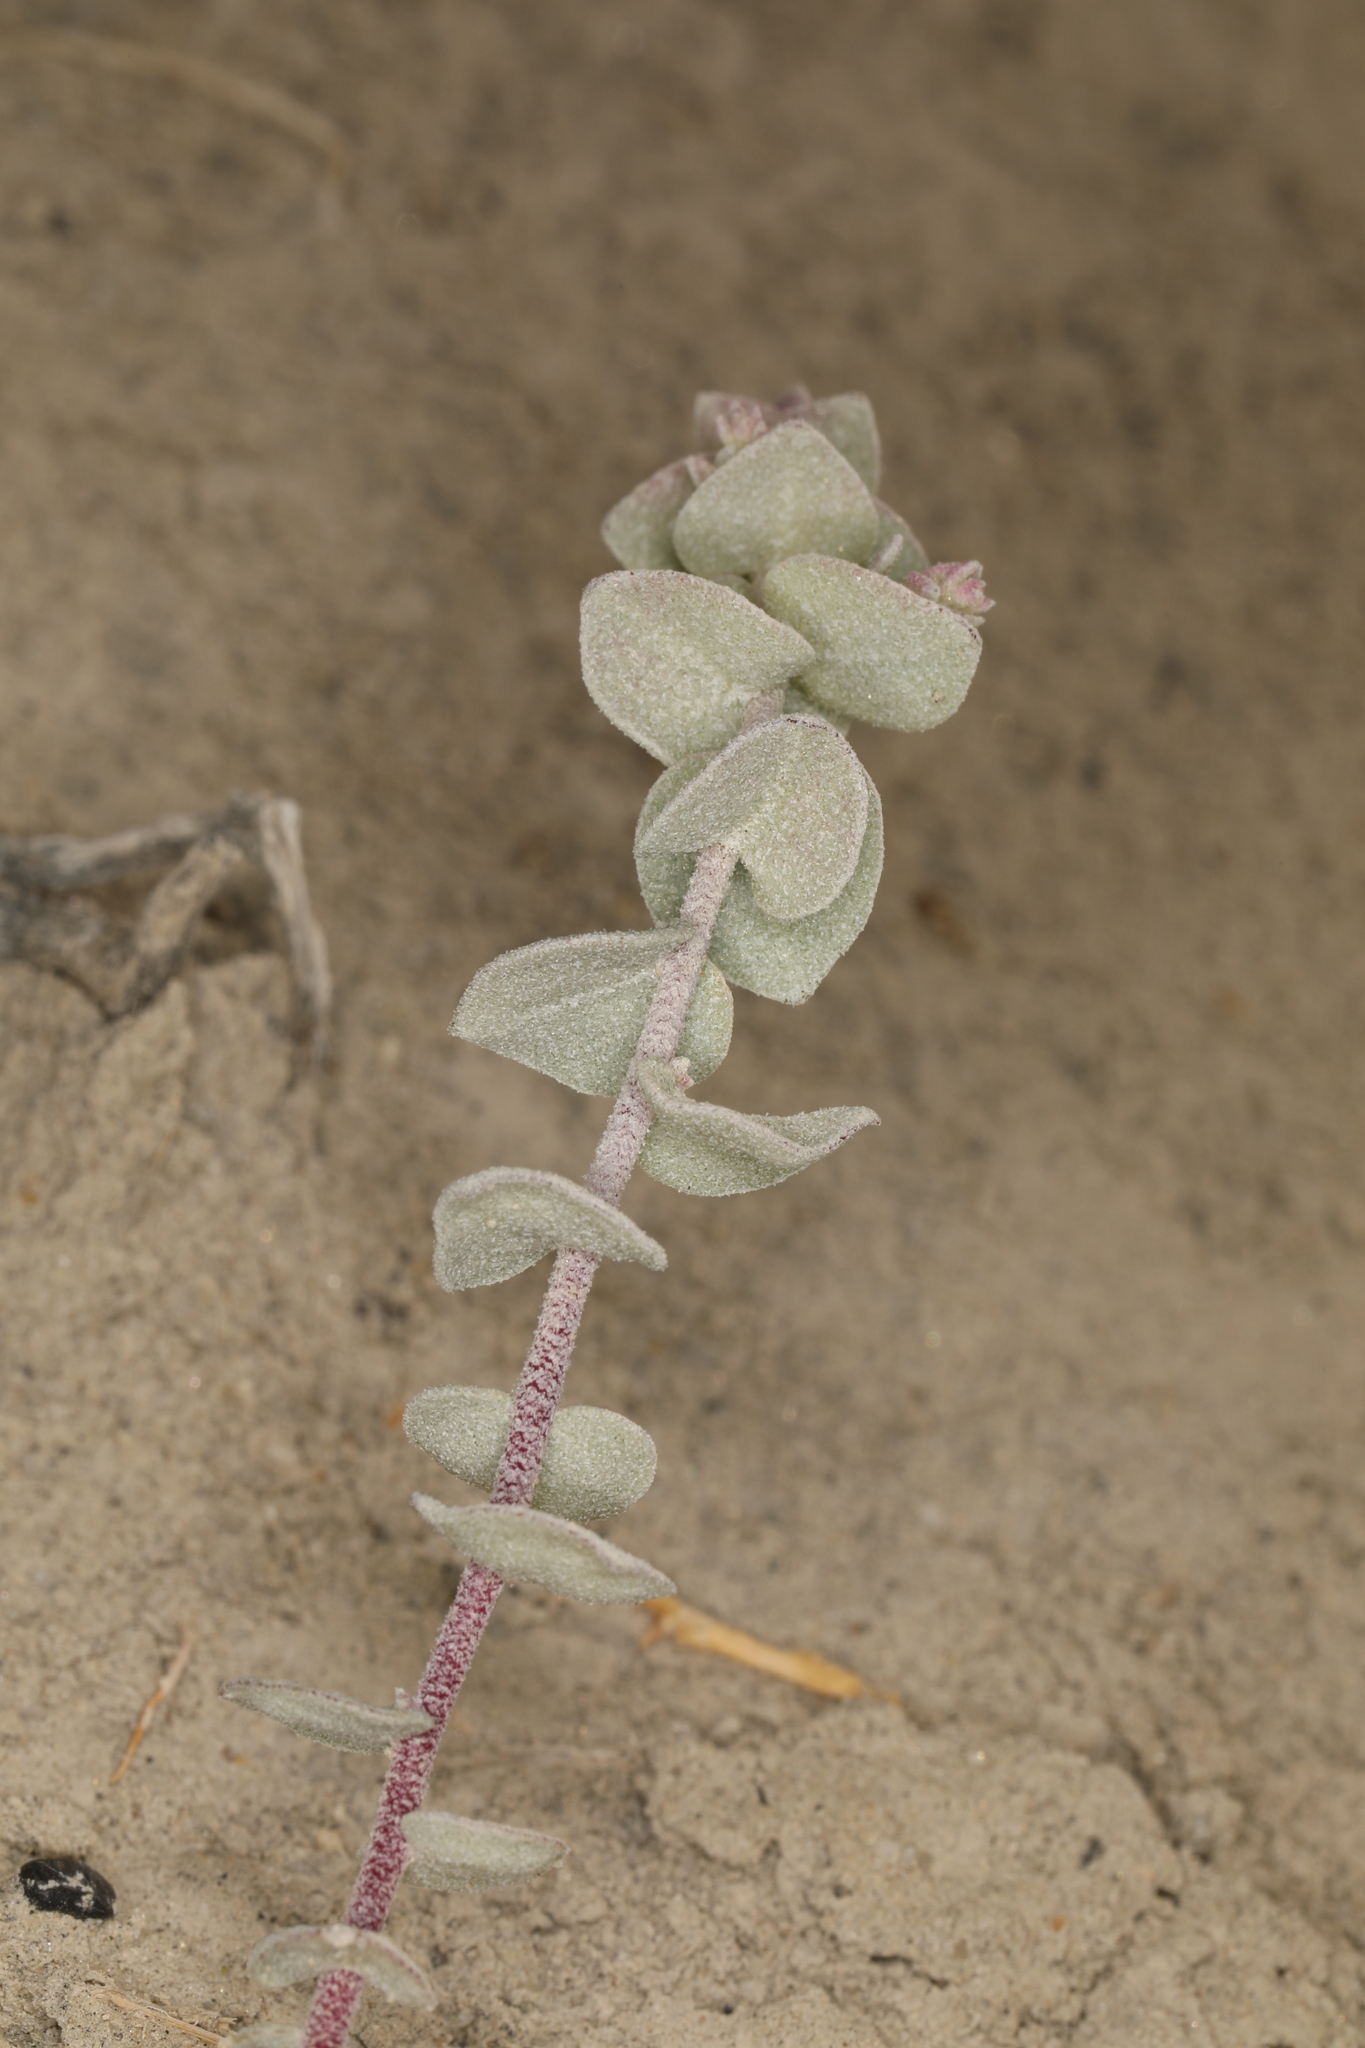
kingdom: Plantae
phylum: Tracheophyta
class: Magnoliopsida
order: Caryophyllales
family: Amaranthaceae
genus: Atriplex
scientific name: Atriplex parryi
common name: Parry's saltbush
